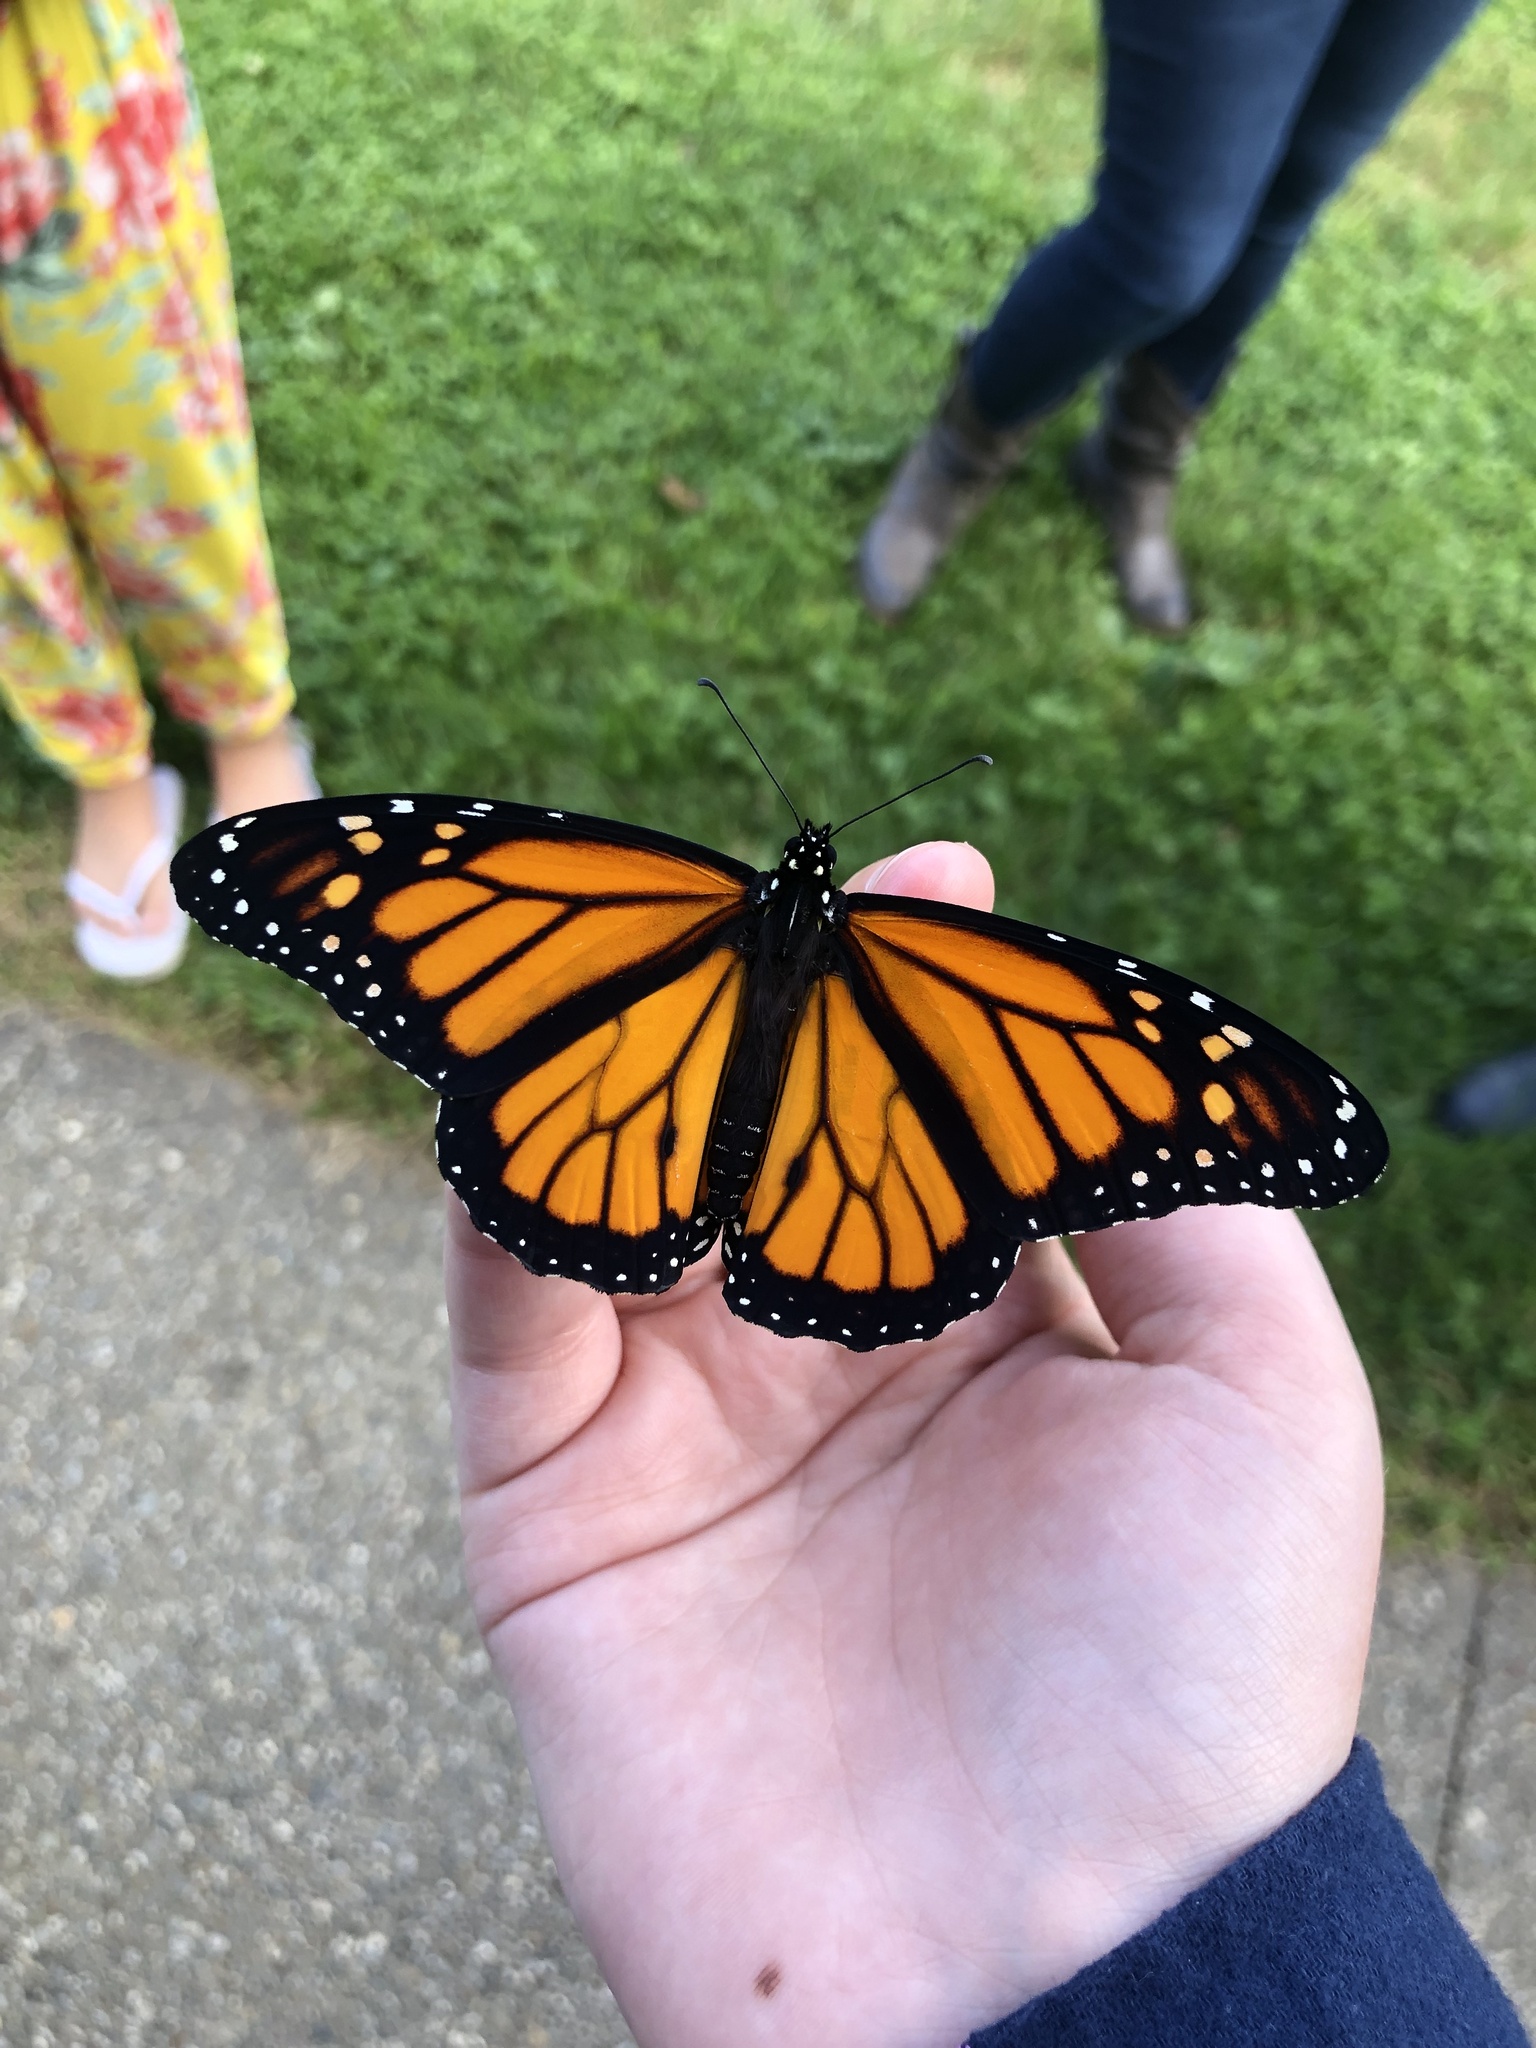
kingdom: Animalia
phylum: Arthropoda
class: Insecta
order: Lepidoptera
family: Nymphalidae
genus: Danaus
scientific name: Danaus plexippus
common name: Monarch
